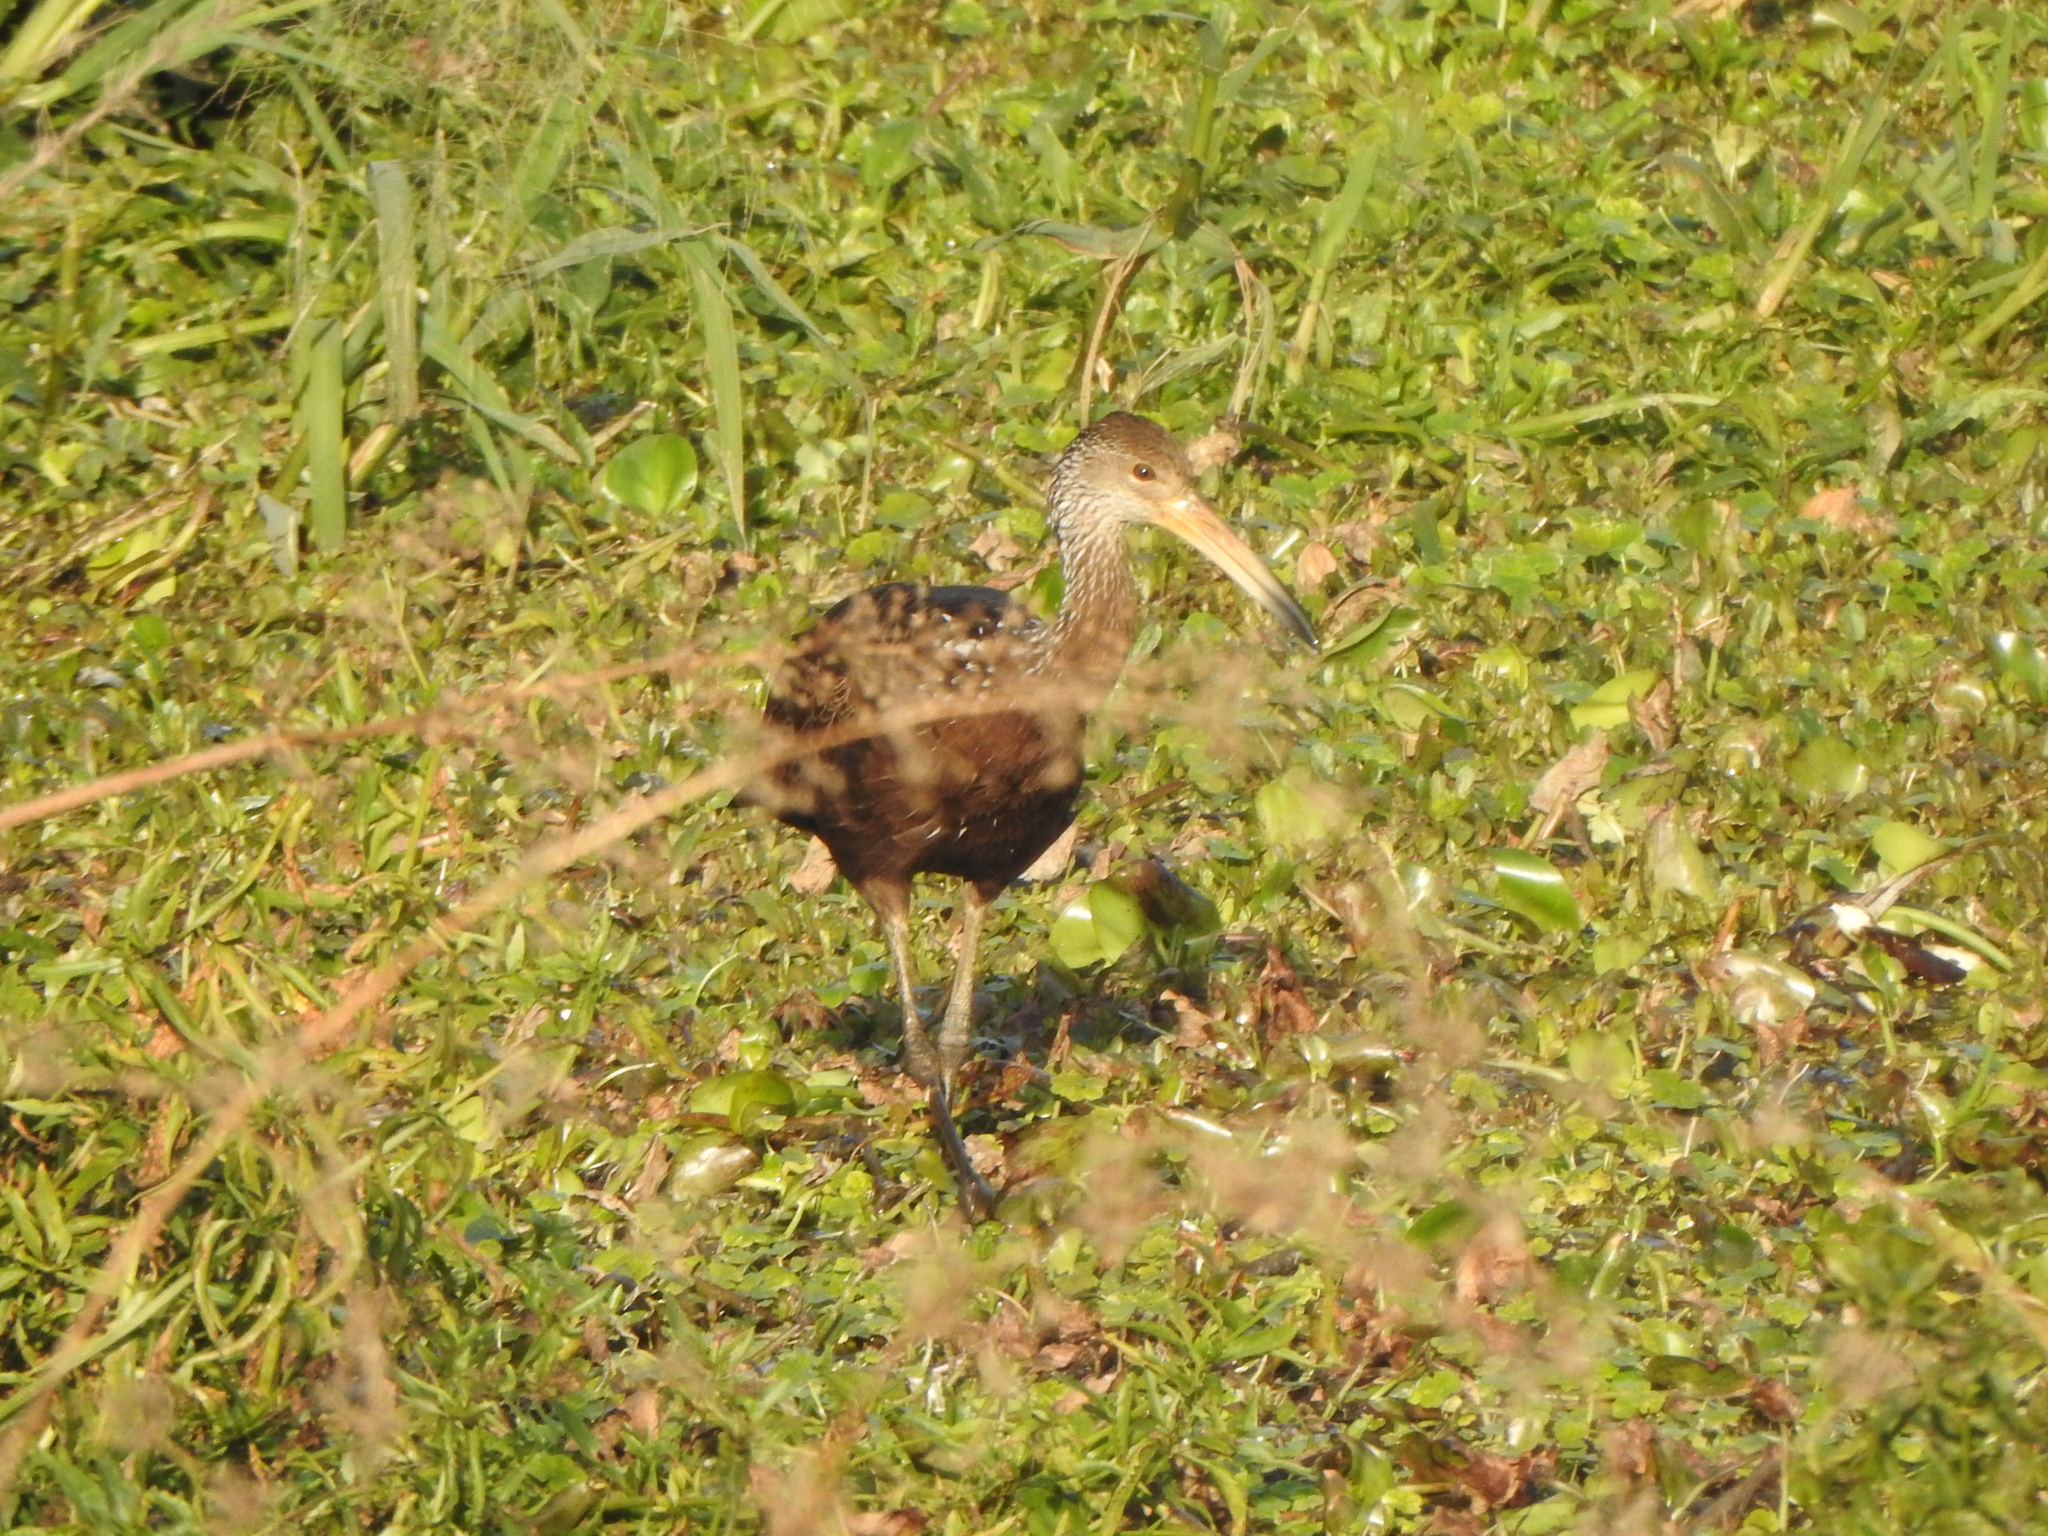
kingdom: Animalia
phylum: Chordata
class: Aves
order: Gruiformes
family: Aramidae
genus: Aramus
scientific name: Aramus guarauna
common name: Limpkin
